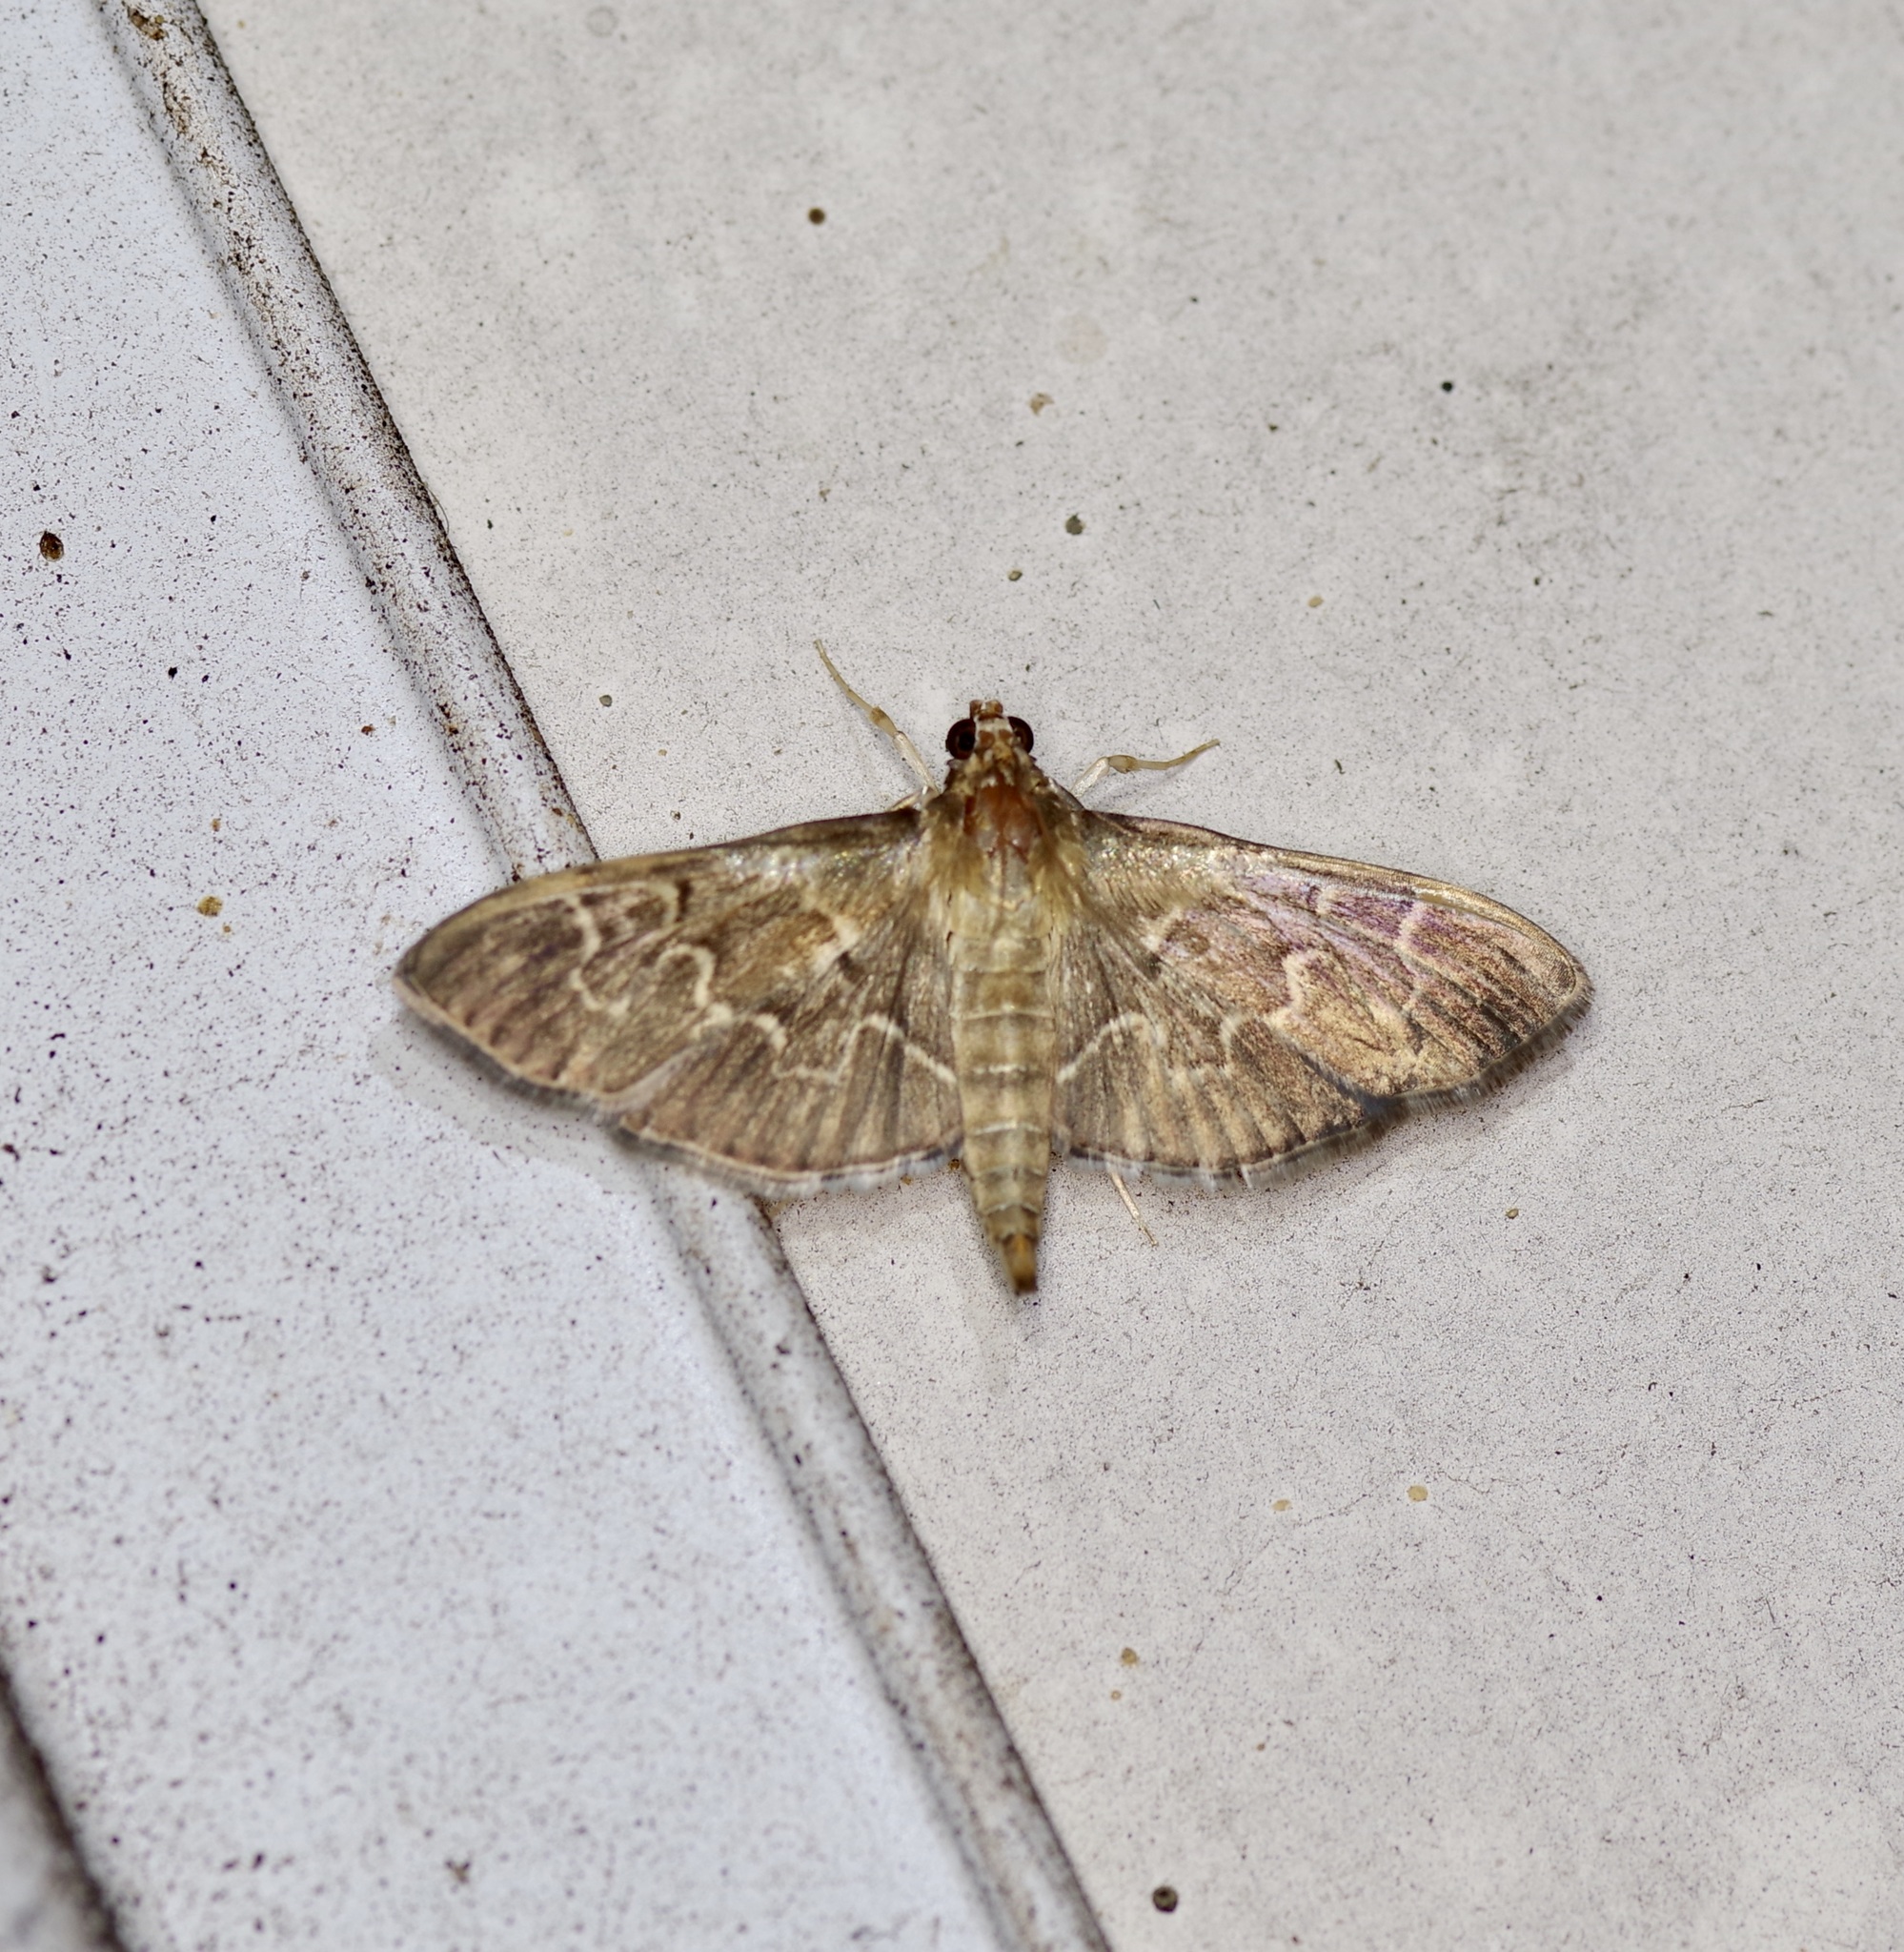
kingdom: Animalia
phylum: Arthropoda
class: Insecta
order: Lepidoptera
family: Crambidae
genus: Pilocrocis
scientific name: Pilocrocis ramentalis
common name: Scraped pilocrocis
